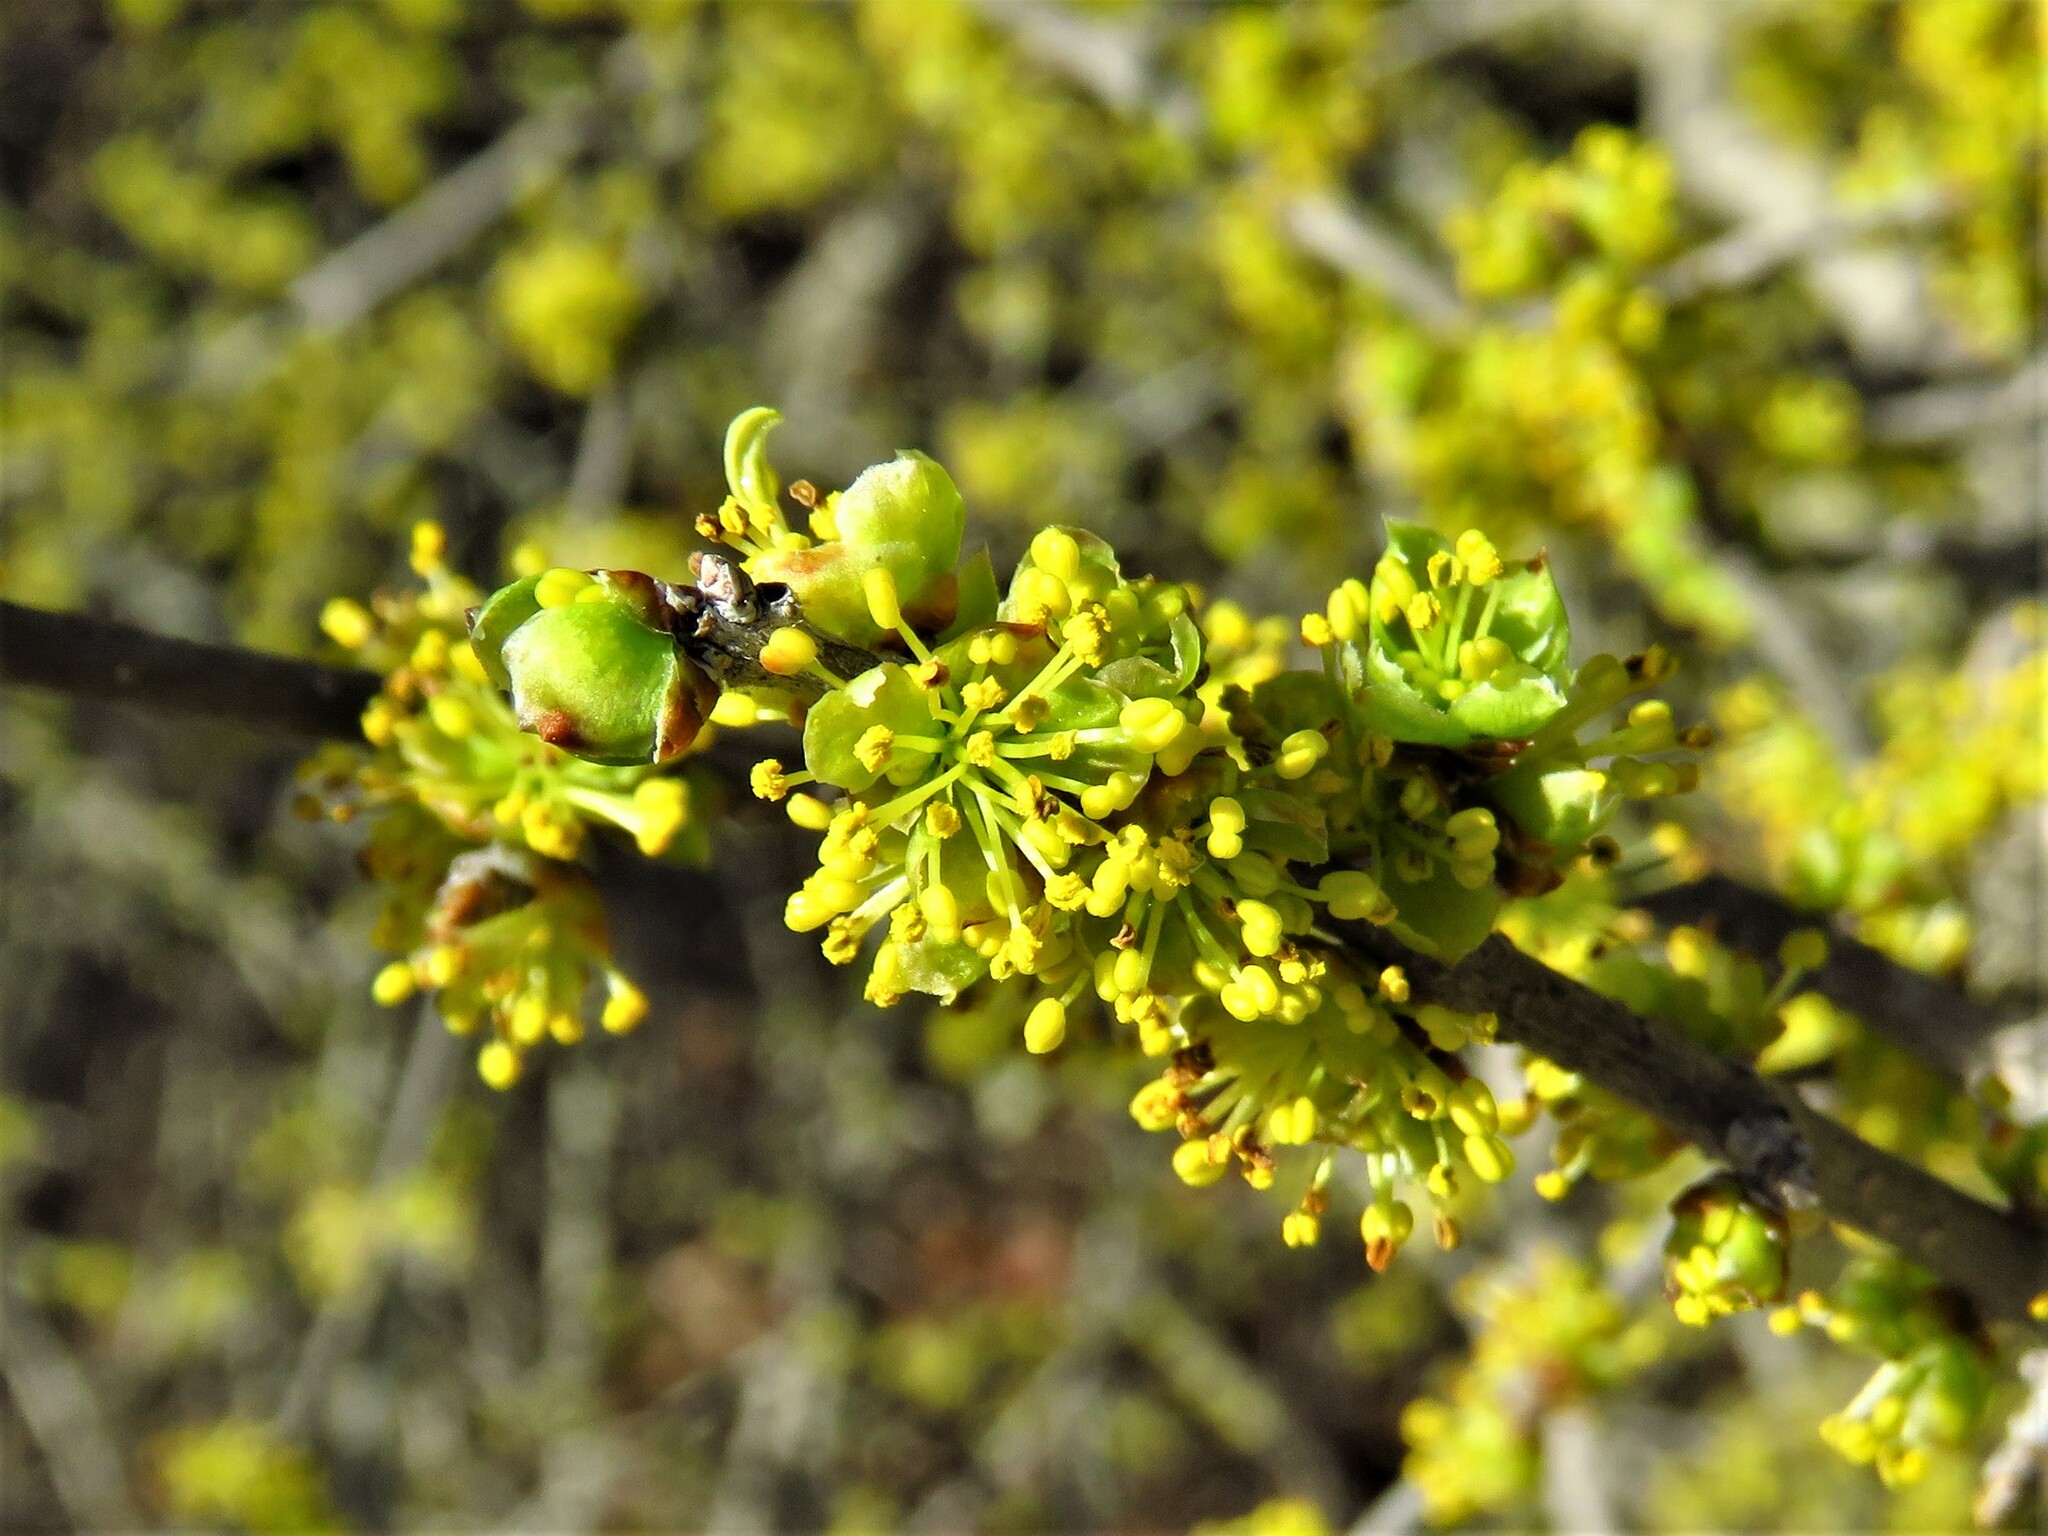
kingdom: Plantae
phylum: Tracheophyta
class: Magnoliopsida
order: Lamiales
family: Oleaceae
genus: Forestiera
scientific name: Forestiera pubescens
